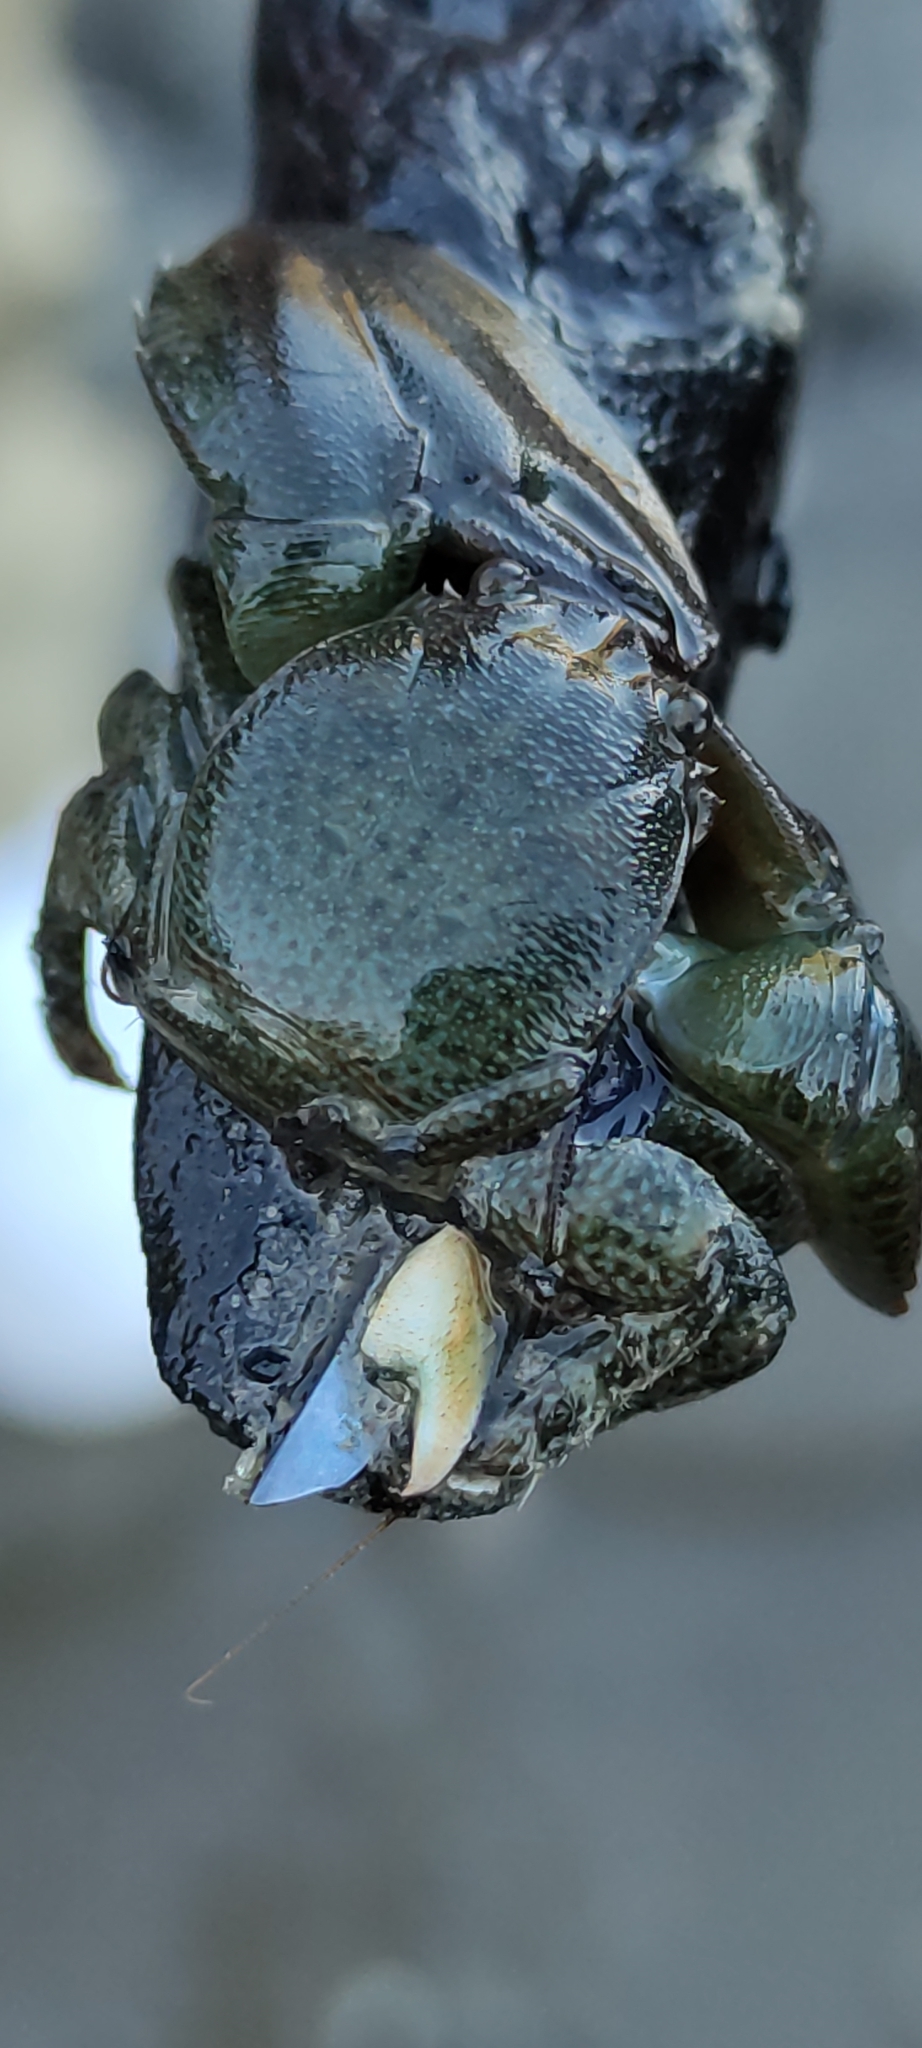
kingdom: Animalia
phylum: Arthropoda
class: Malacostraca
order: Decapoda
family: Porcellanidae
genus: Petrolisthes
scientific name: Petrolisthes elongatus
